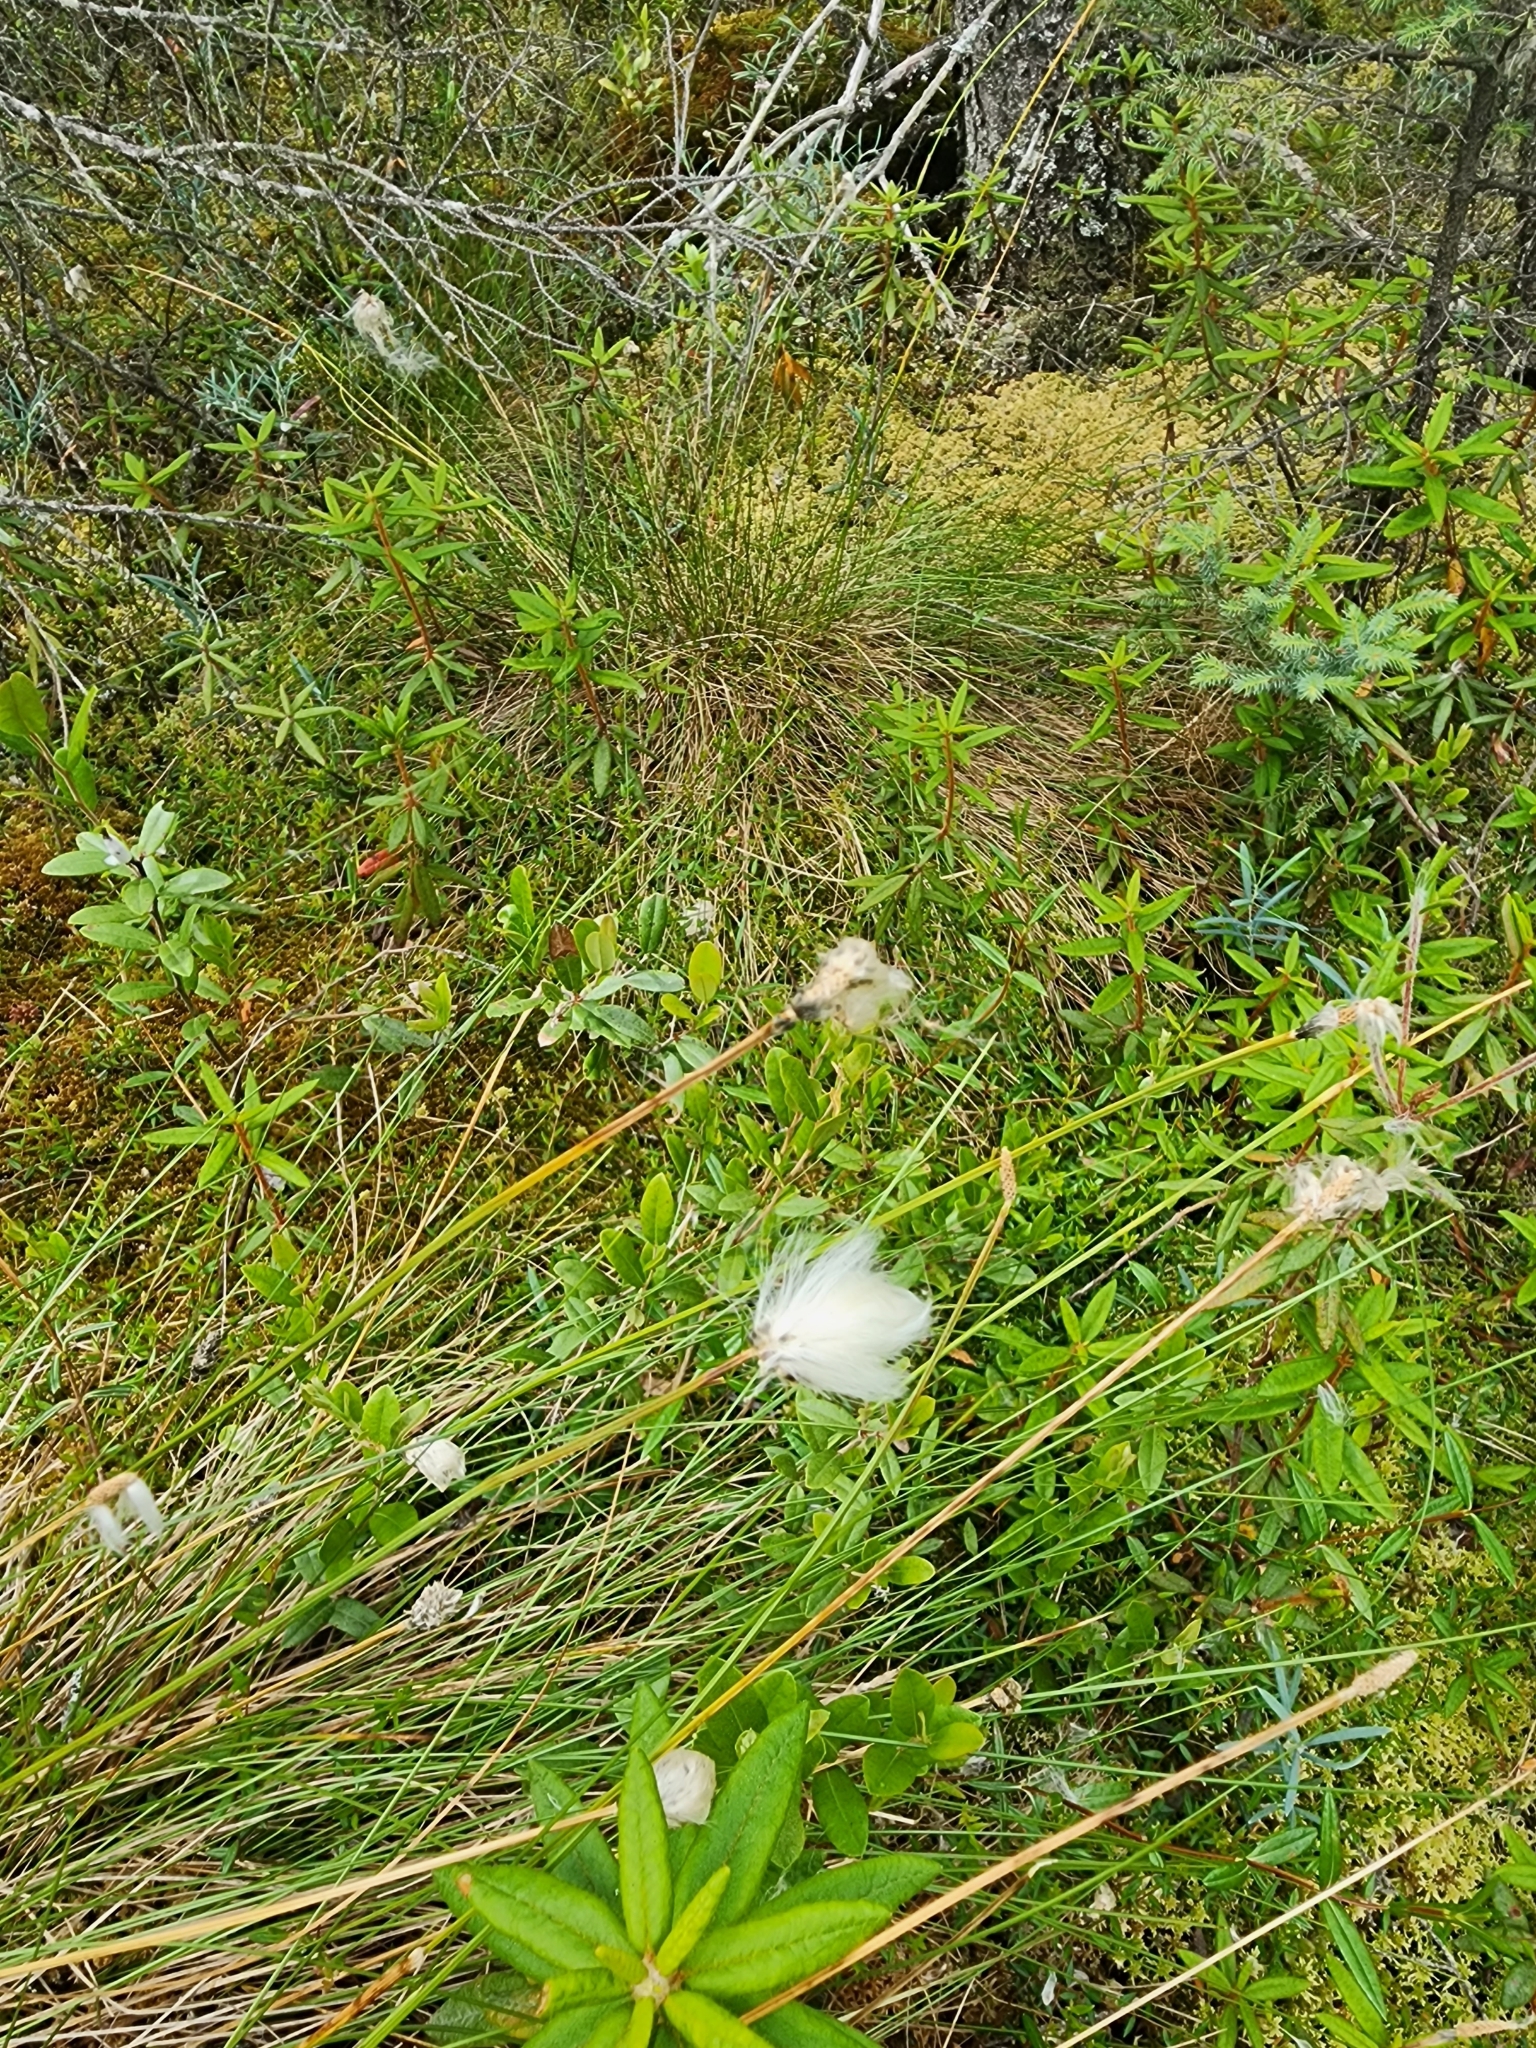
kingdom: Plantae
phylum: Tracheophyta
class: Liliopsida
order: Poales
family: Cyperaceae
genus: Eriophorum
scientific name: Eriophorum vaginatum
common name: Hare's-tail cottongrass
